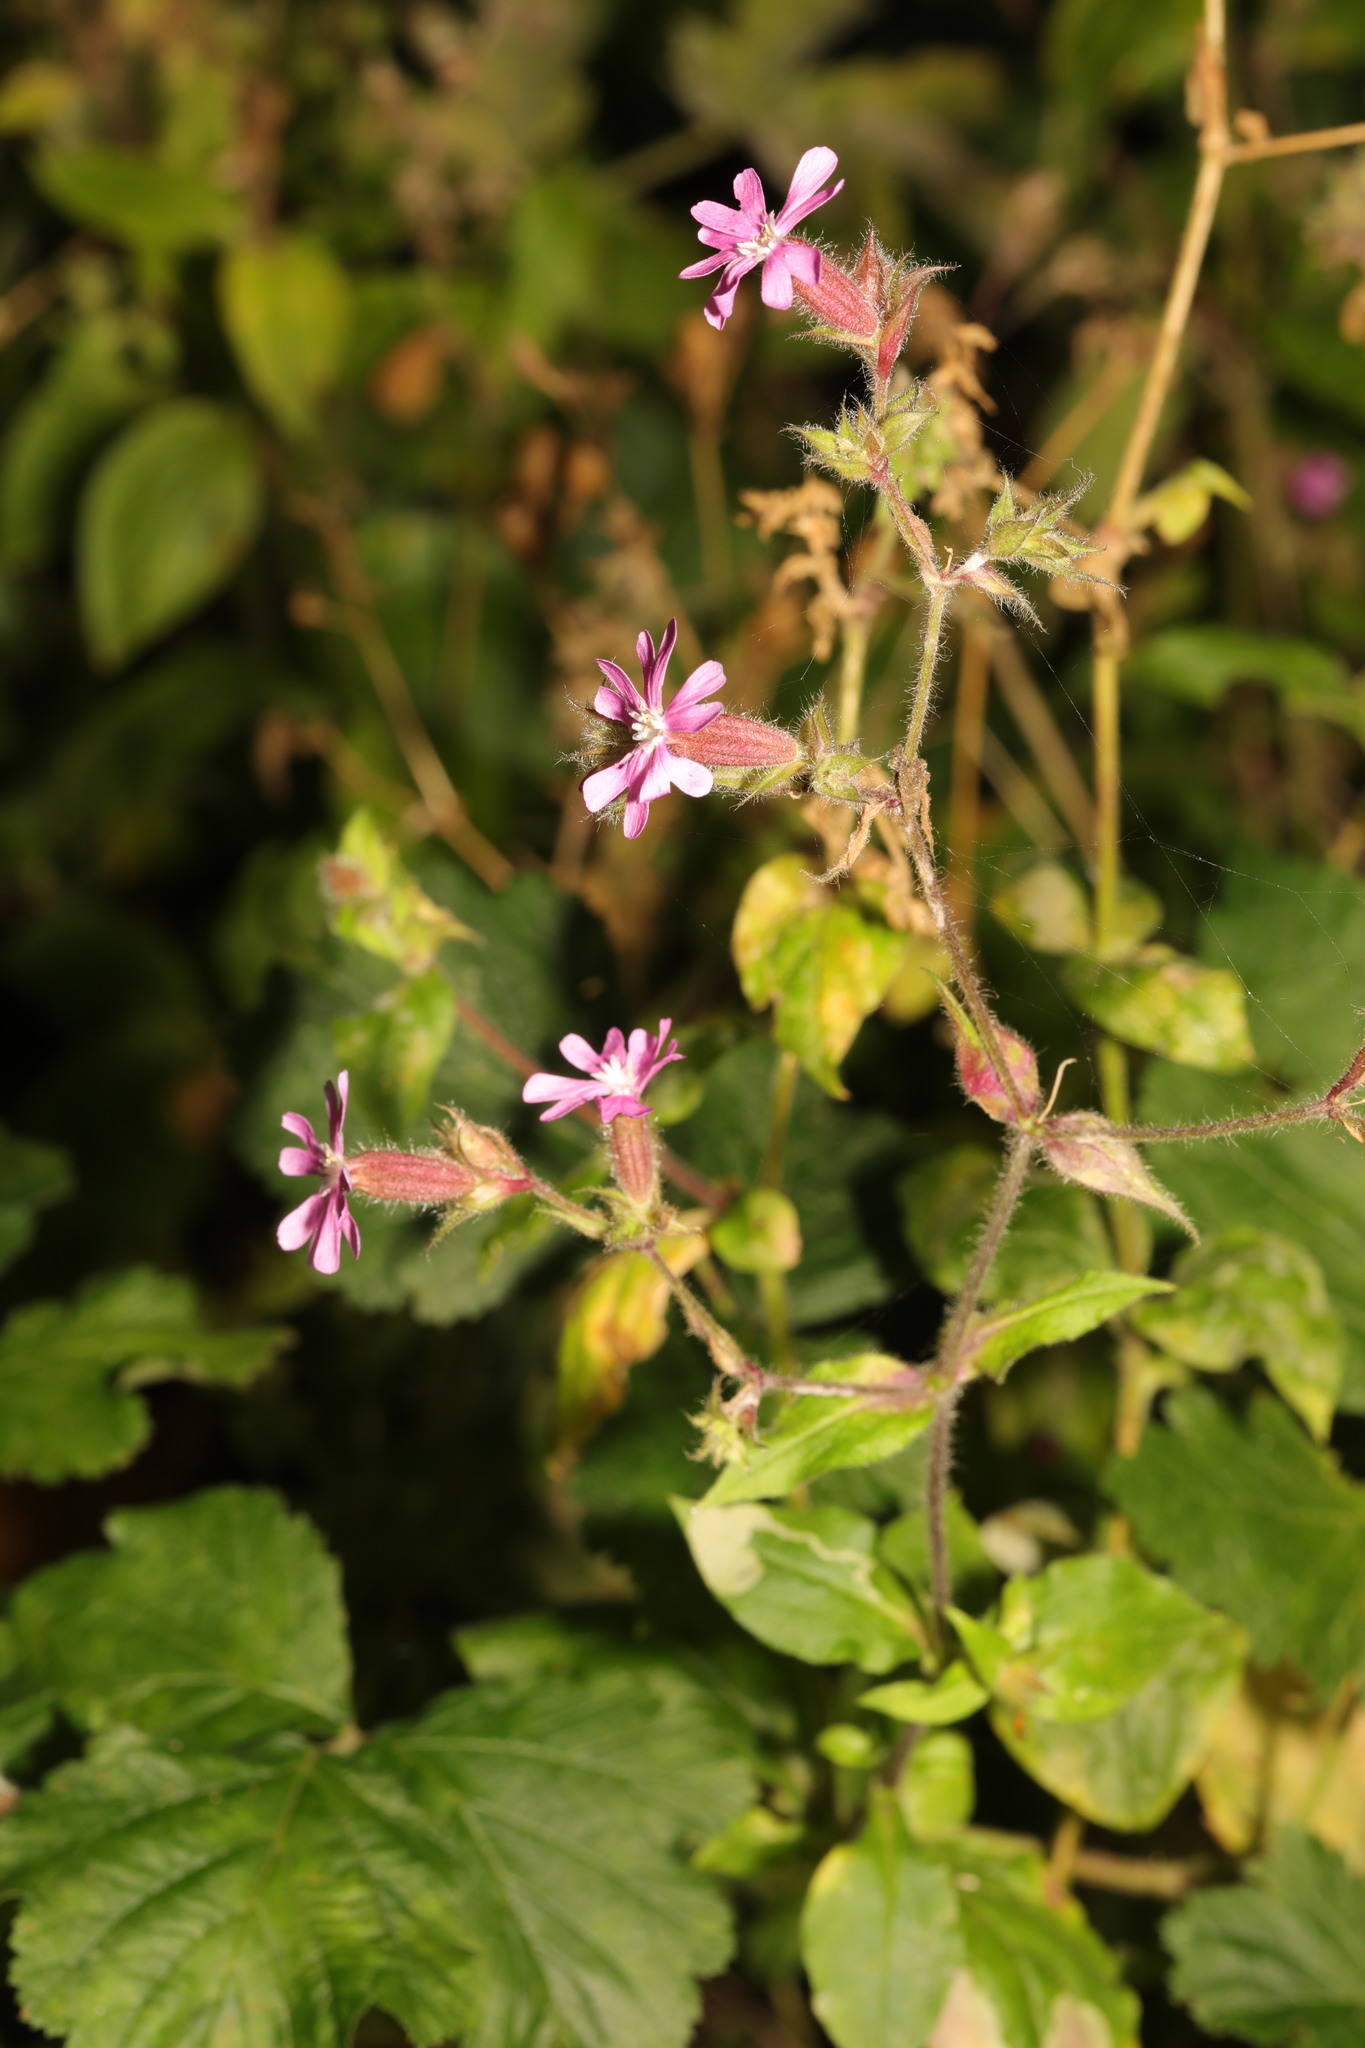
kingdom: Plantae
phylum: Tracheophyta
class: Magnoliopsida
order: Caryophyllales
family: Caryophyllaceae
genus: Silene
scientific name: Silene dioica
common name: Red campion
